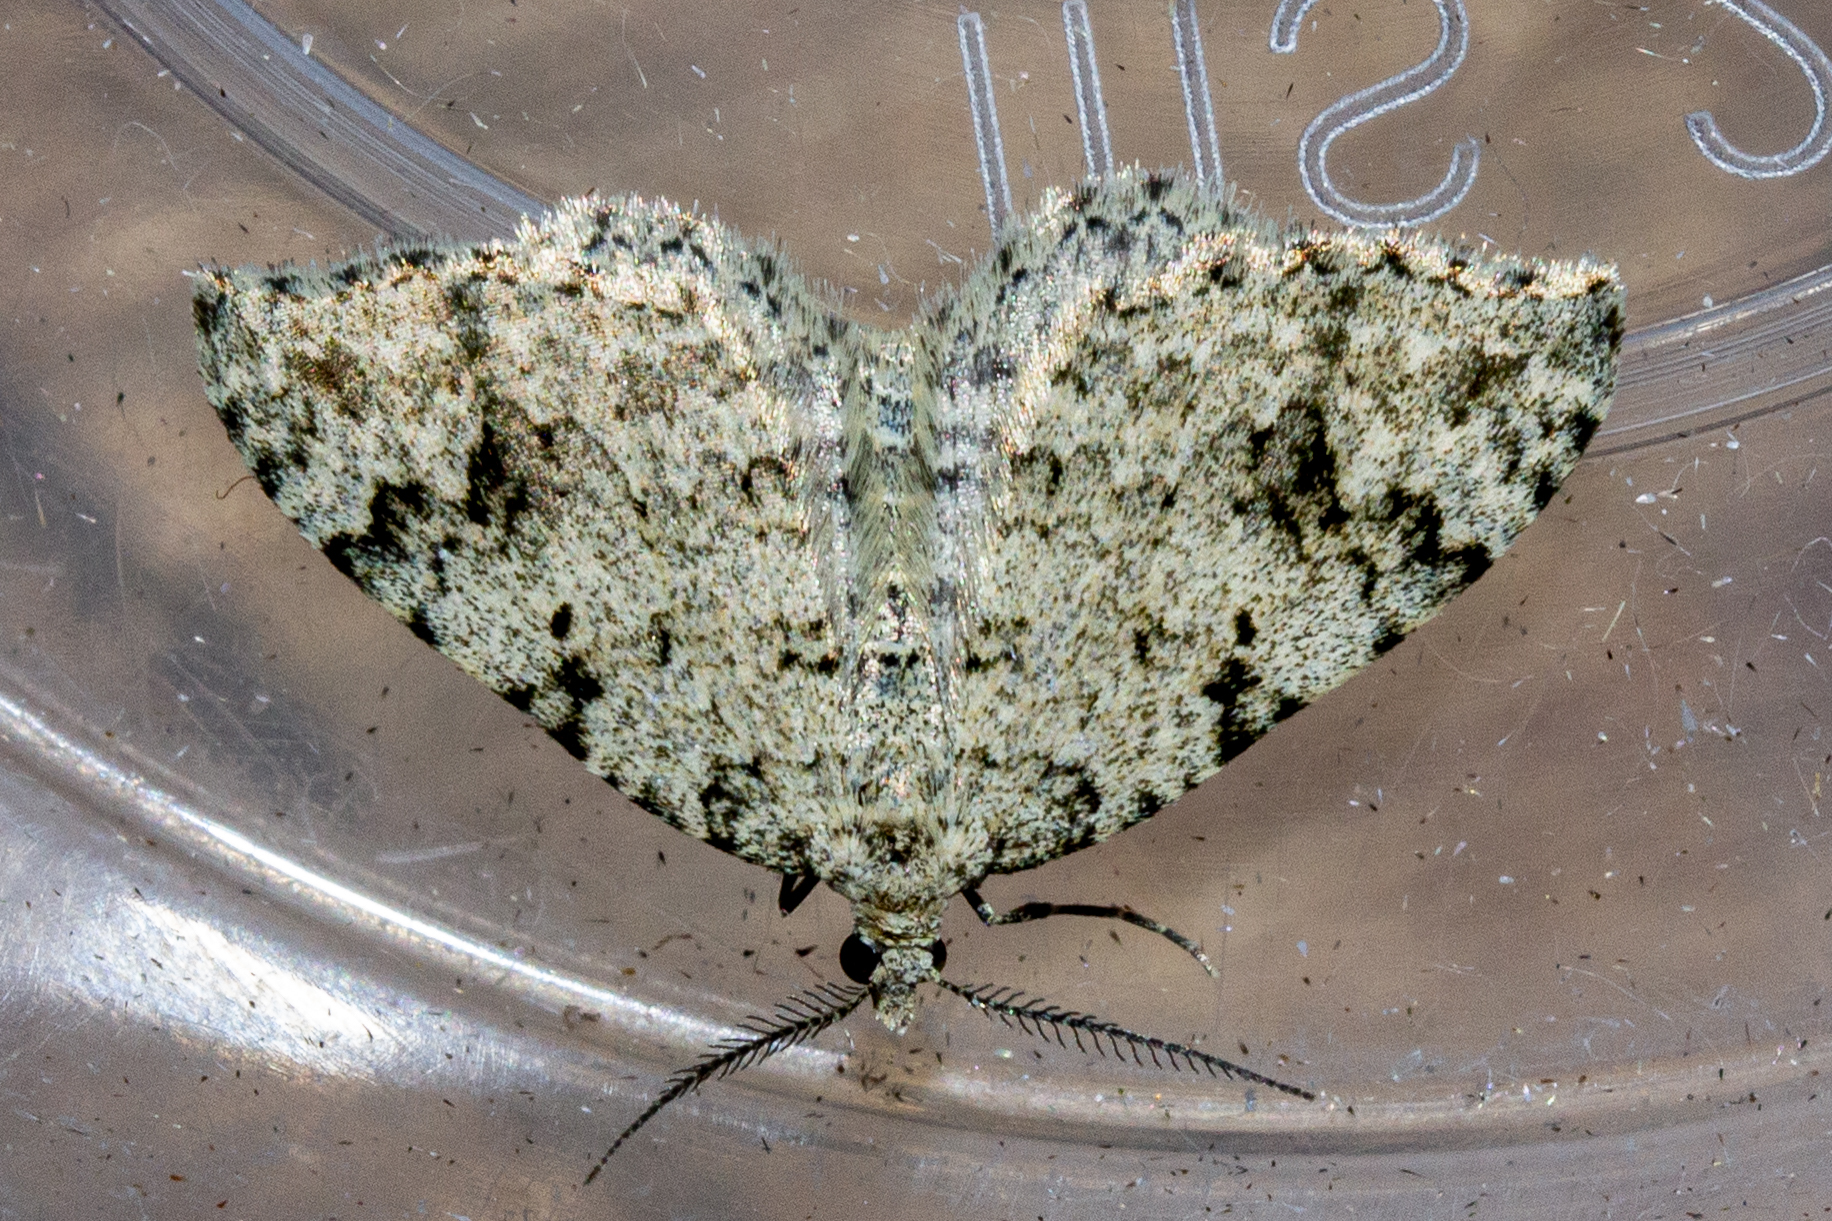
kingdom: Animalia
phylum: Arthropoda
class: Insecta
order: Lepidoptera
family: Geometridae
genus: Helastia
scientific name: Helastia cinerearia
